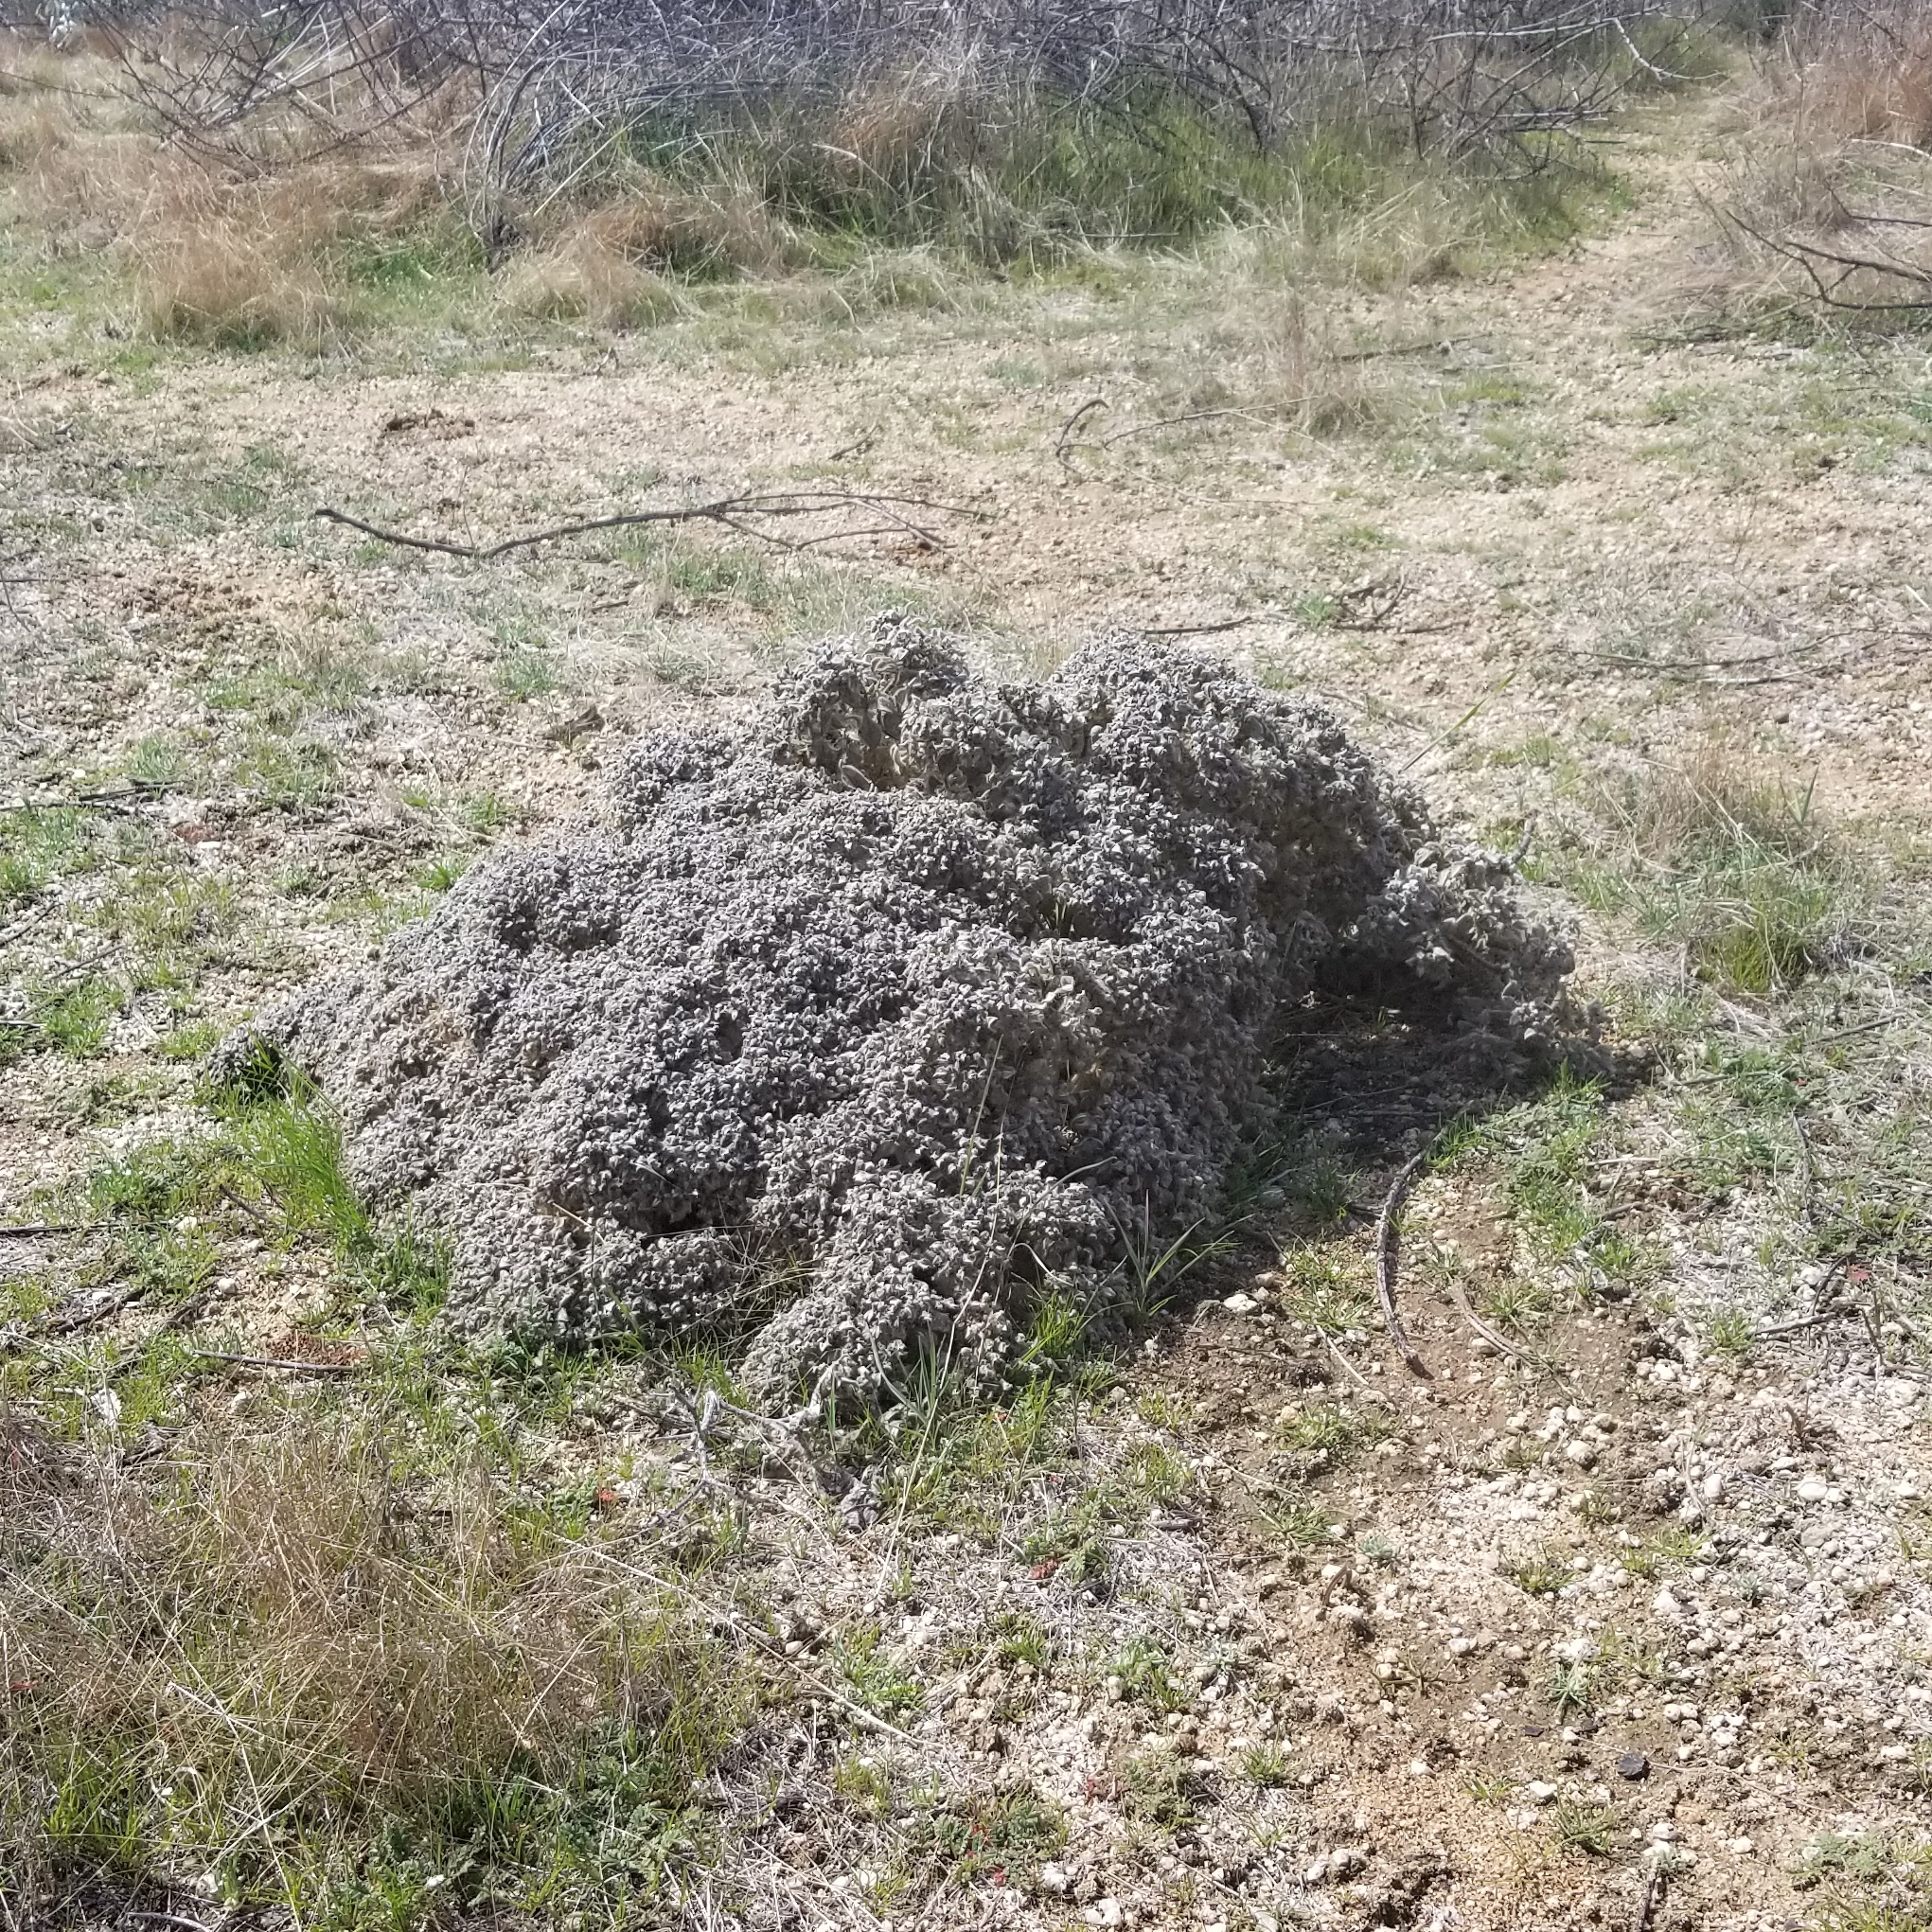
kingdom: Plantae
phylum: Tracheophyta
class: Magnoliopsida
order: Malpighiales
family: Euphorbiaceae
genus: Croton
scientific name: Croton setiger
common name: Dove weed
